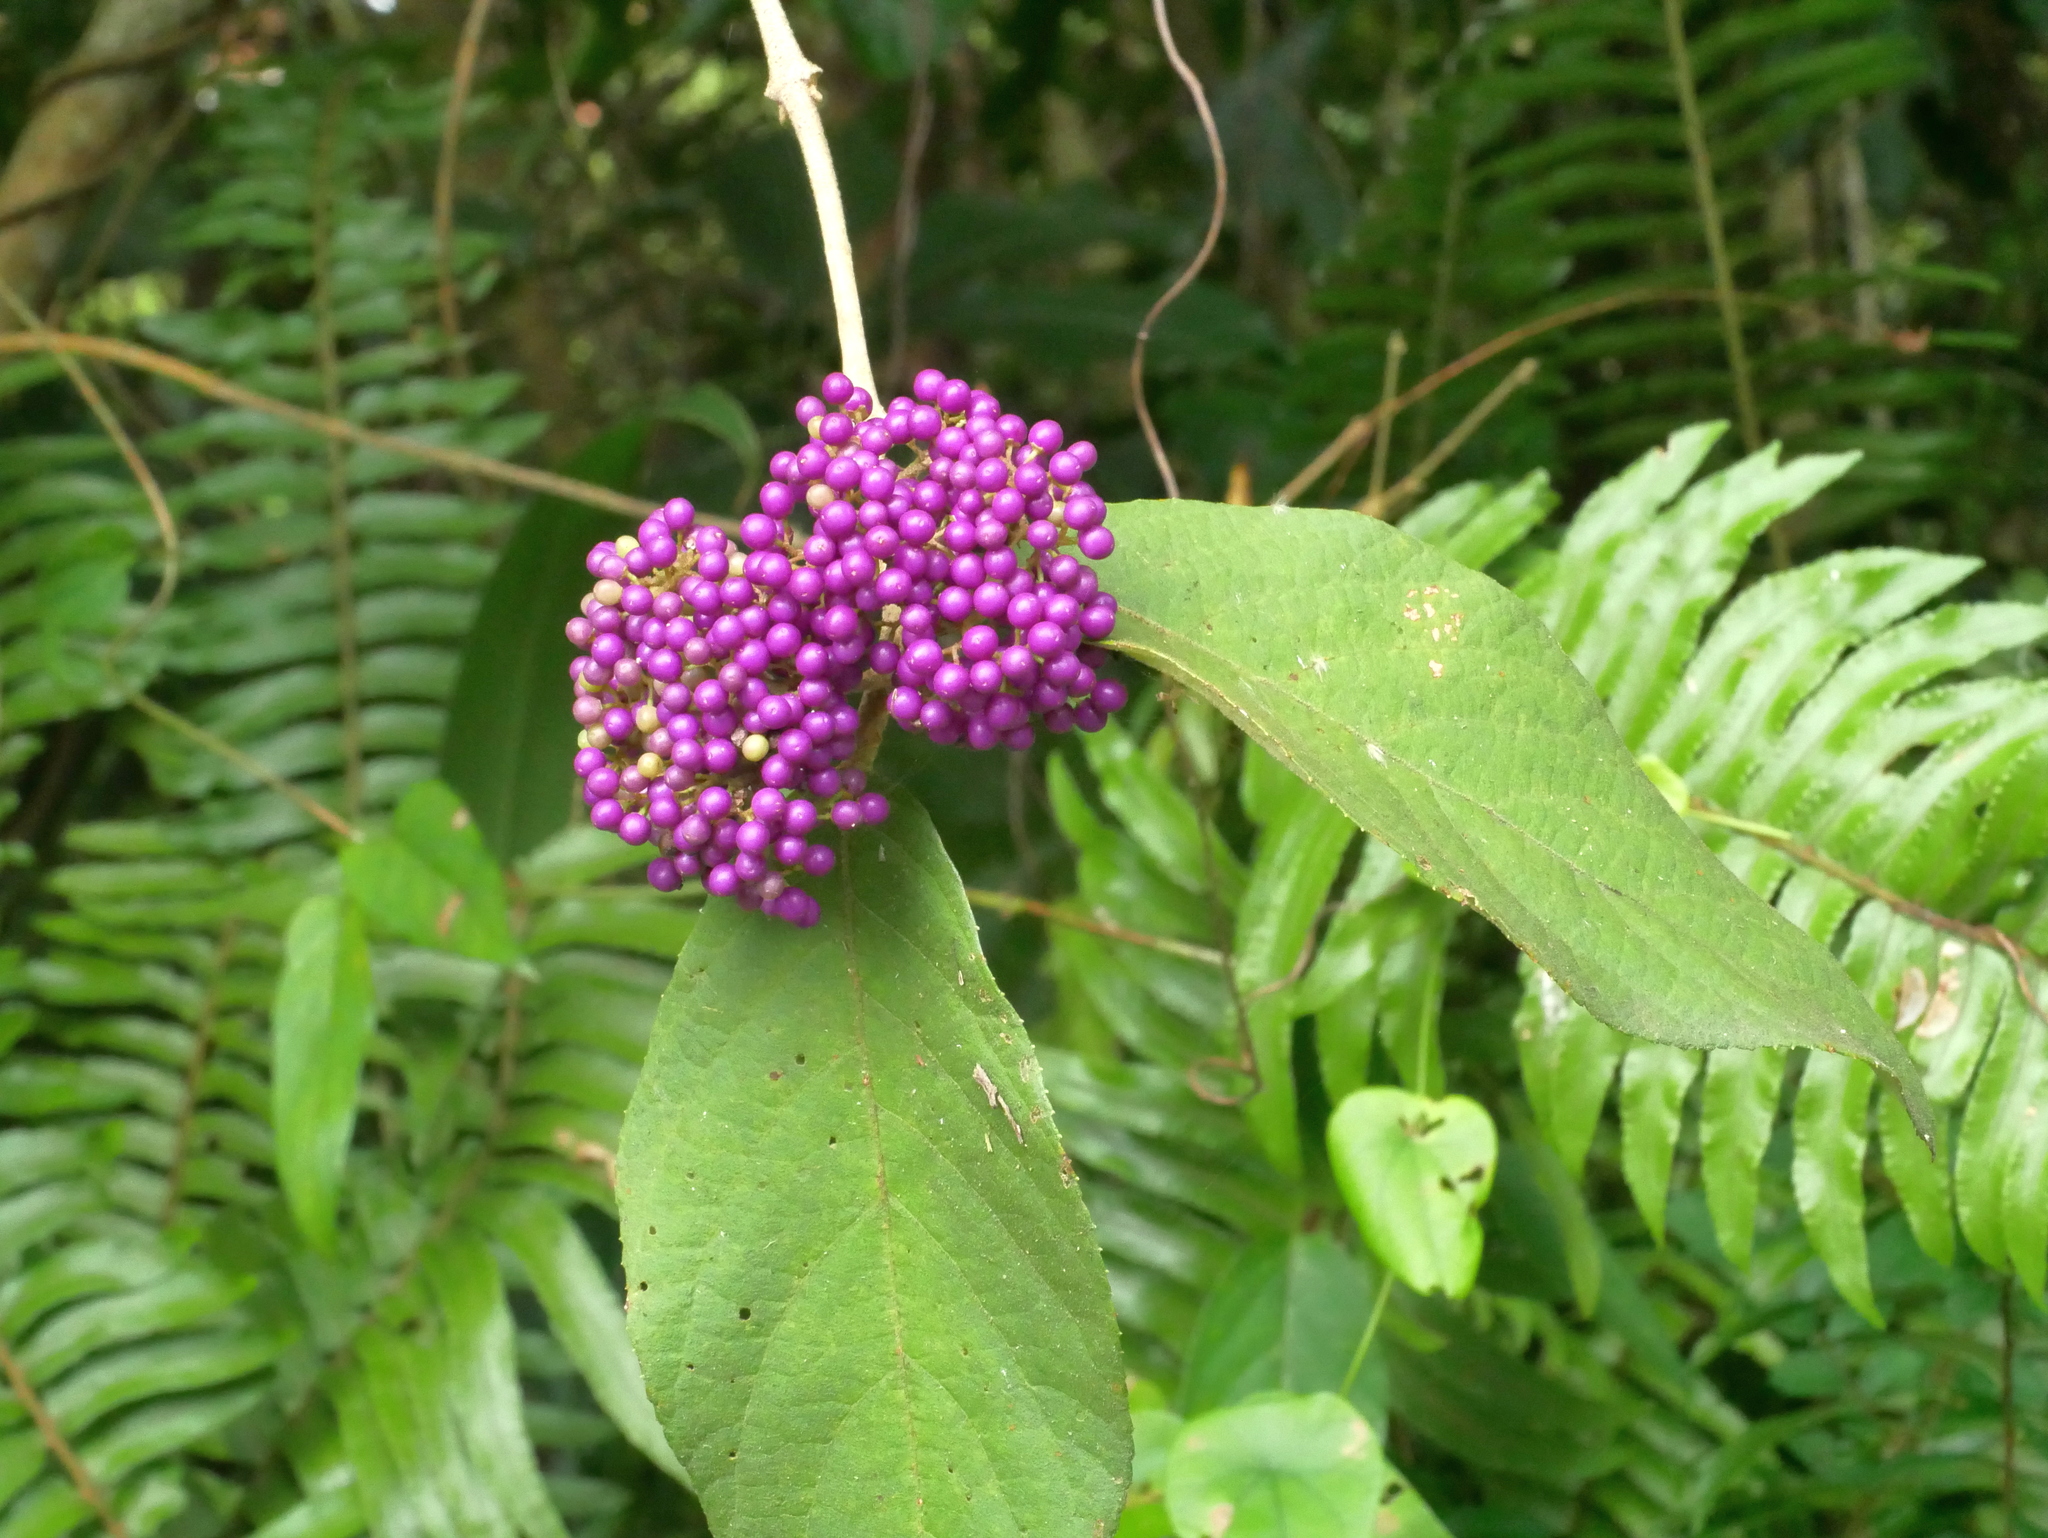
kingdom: Plantae
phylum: Tracheophyta
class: Magnoliopsida
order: Lamiales
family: Lamiaceae
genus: Callicarpa
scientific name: Callicarpa pedunculata
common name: Velvetleaf
